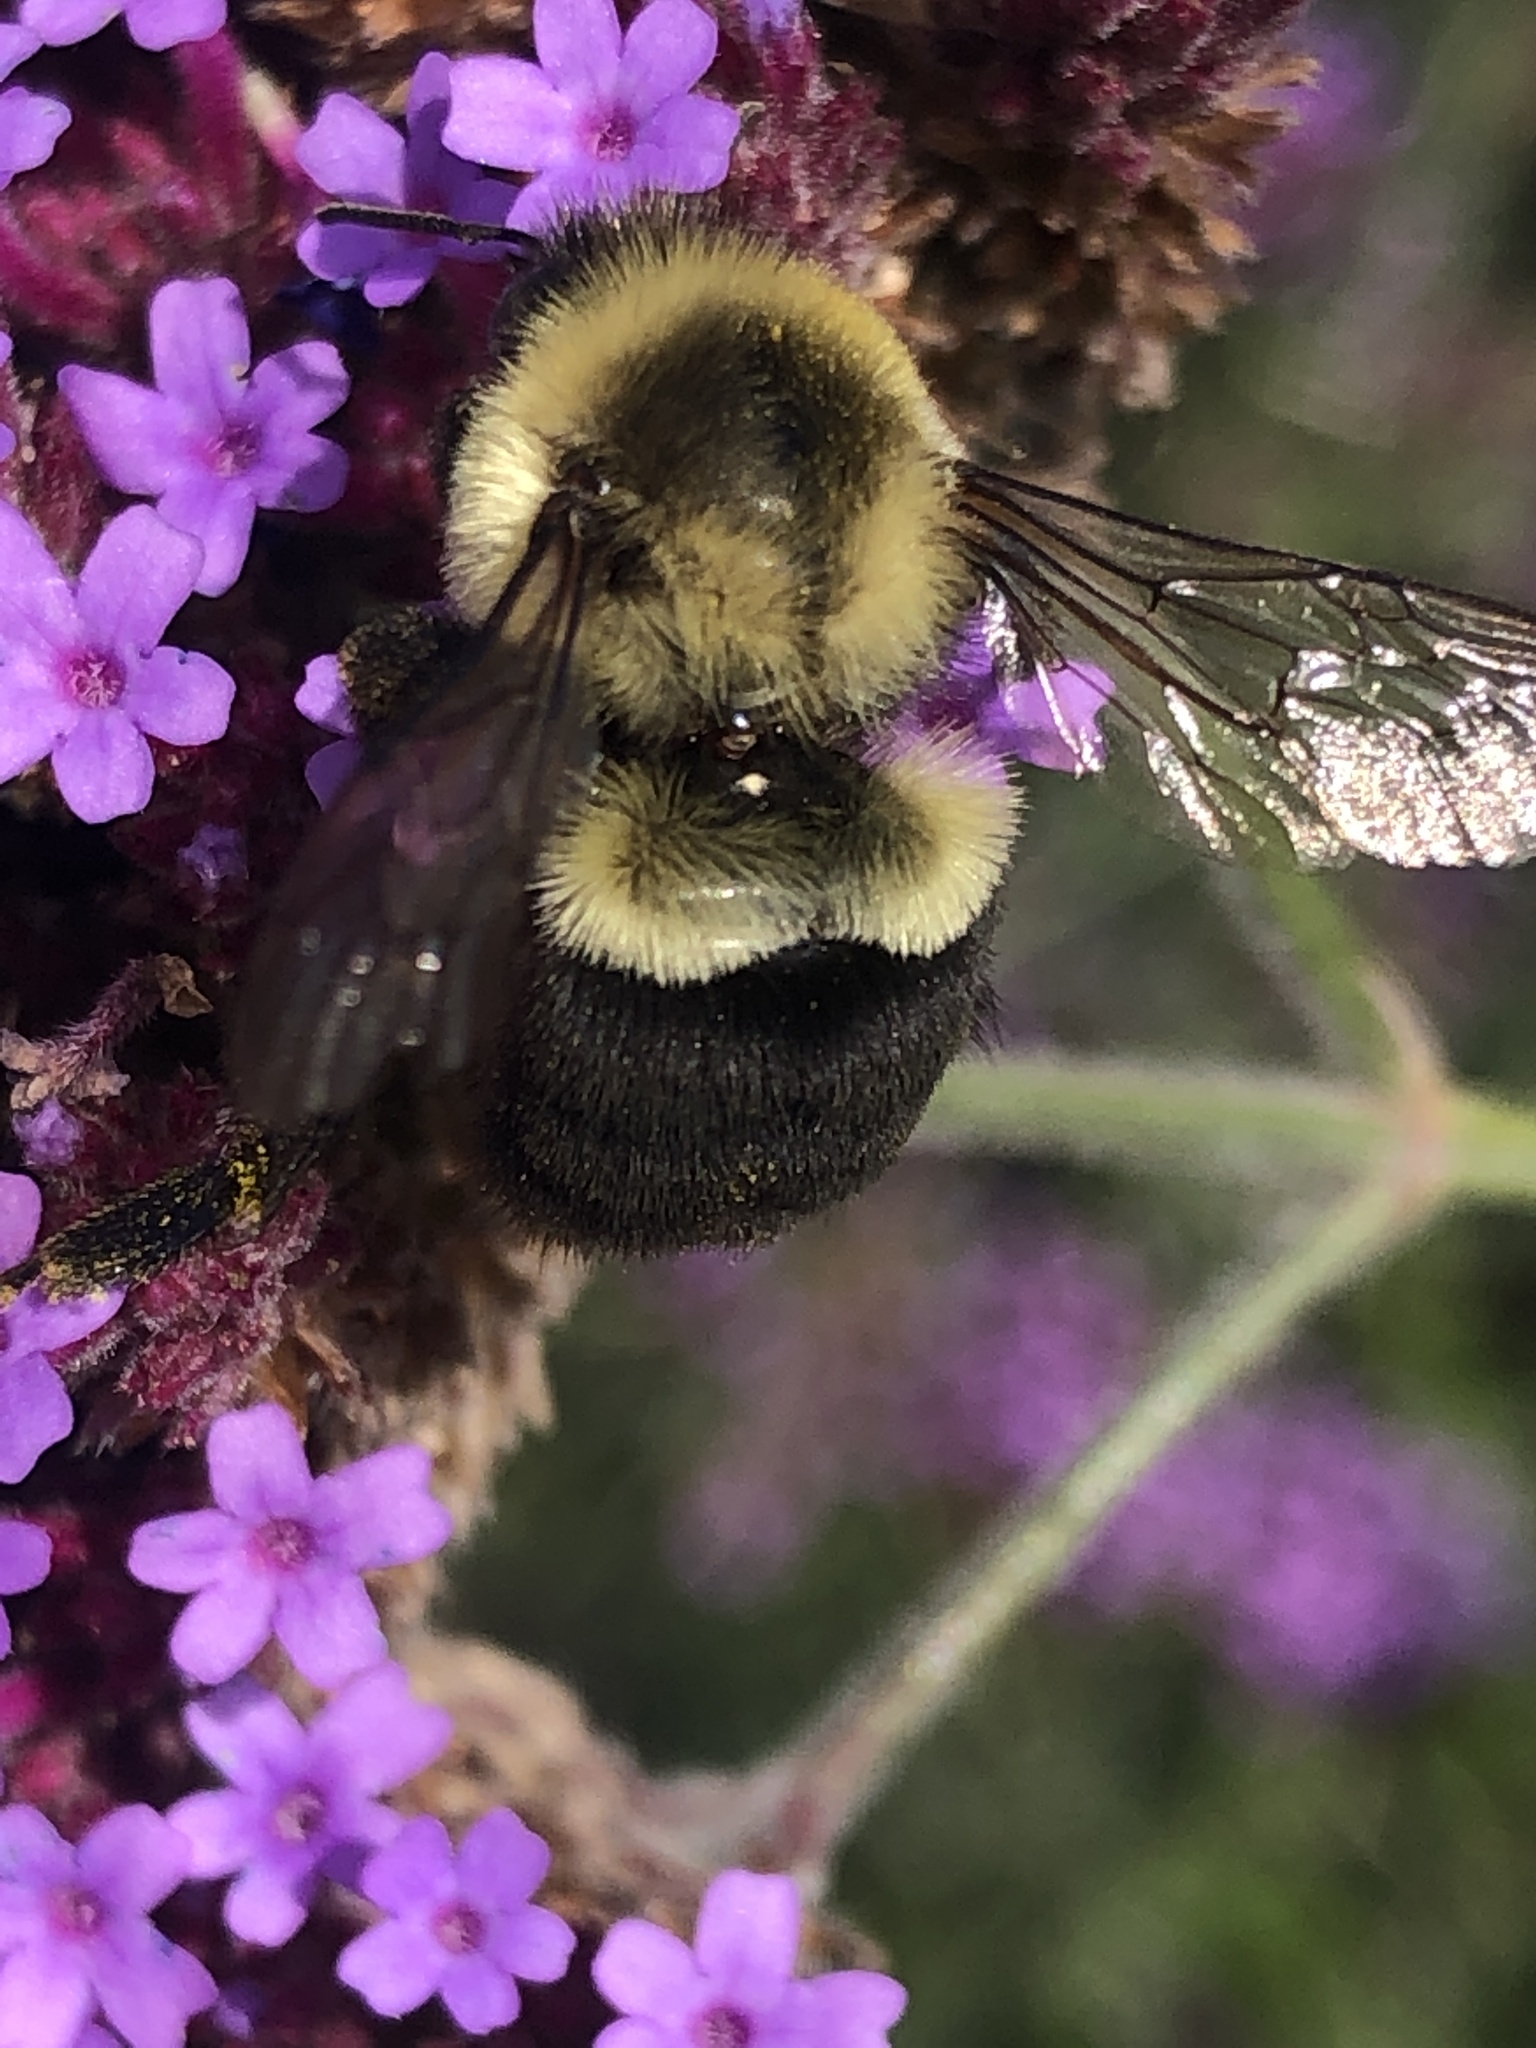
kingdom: Animalia
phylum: Arthropoda
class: Insecta
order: Hymenoptera
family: Apidae
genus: Bombus
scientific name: Bombus impatiens
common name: Common eastern bumble bee
